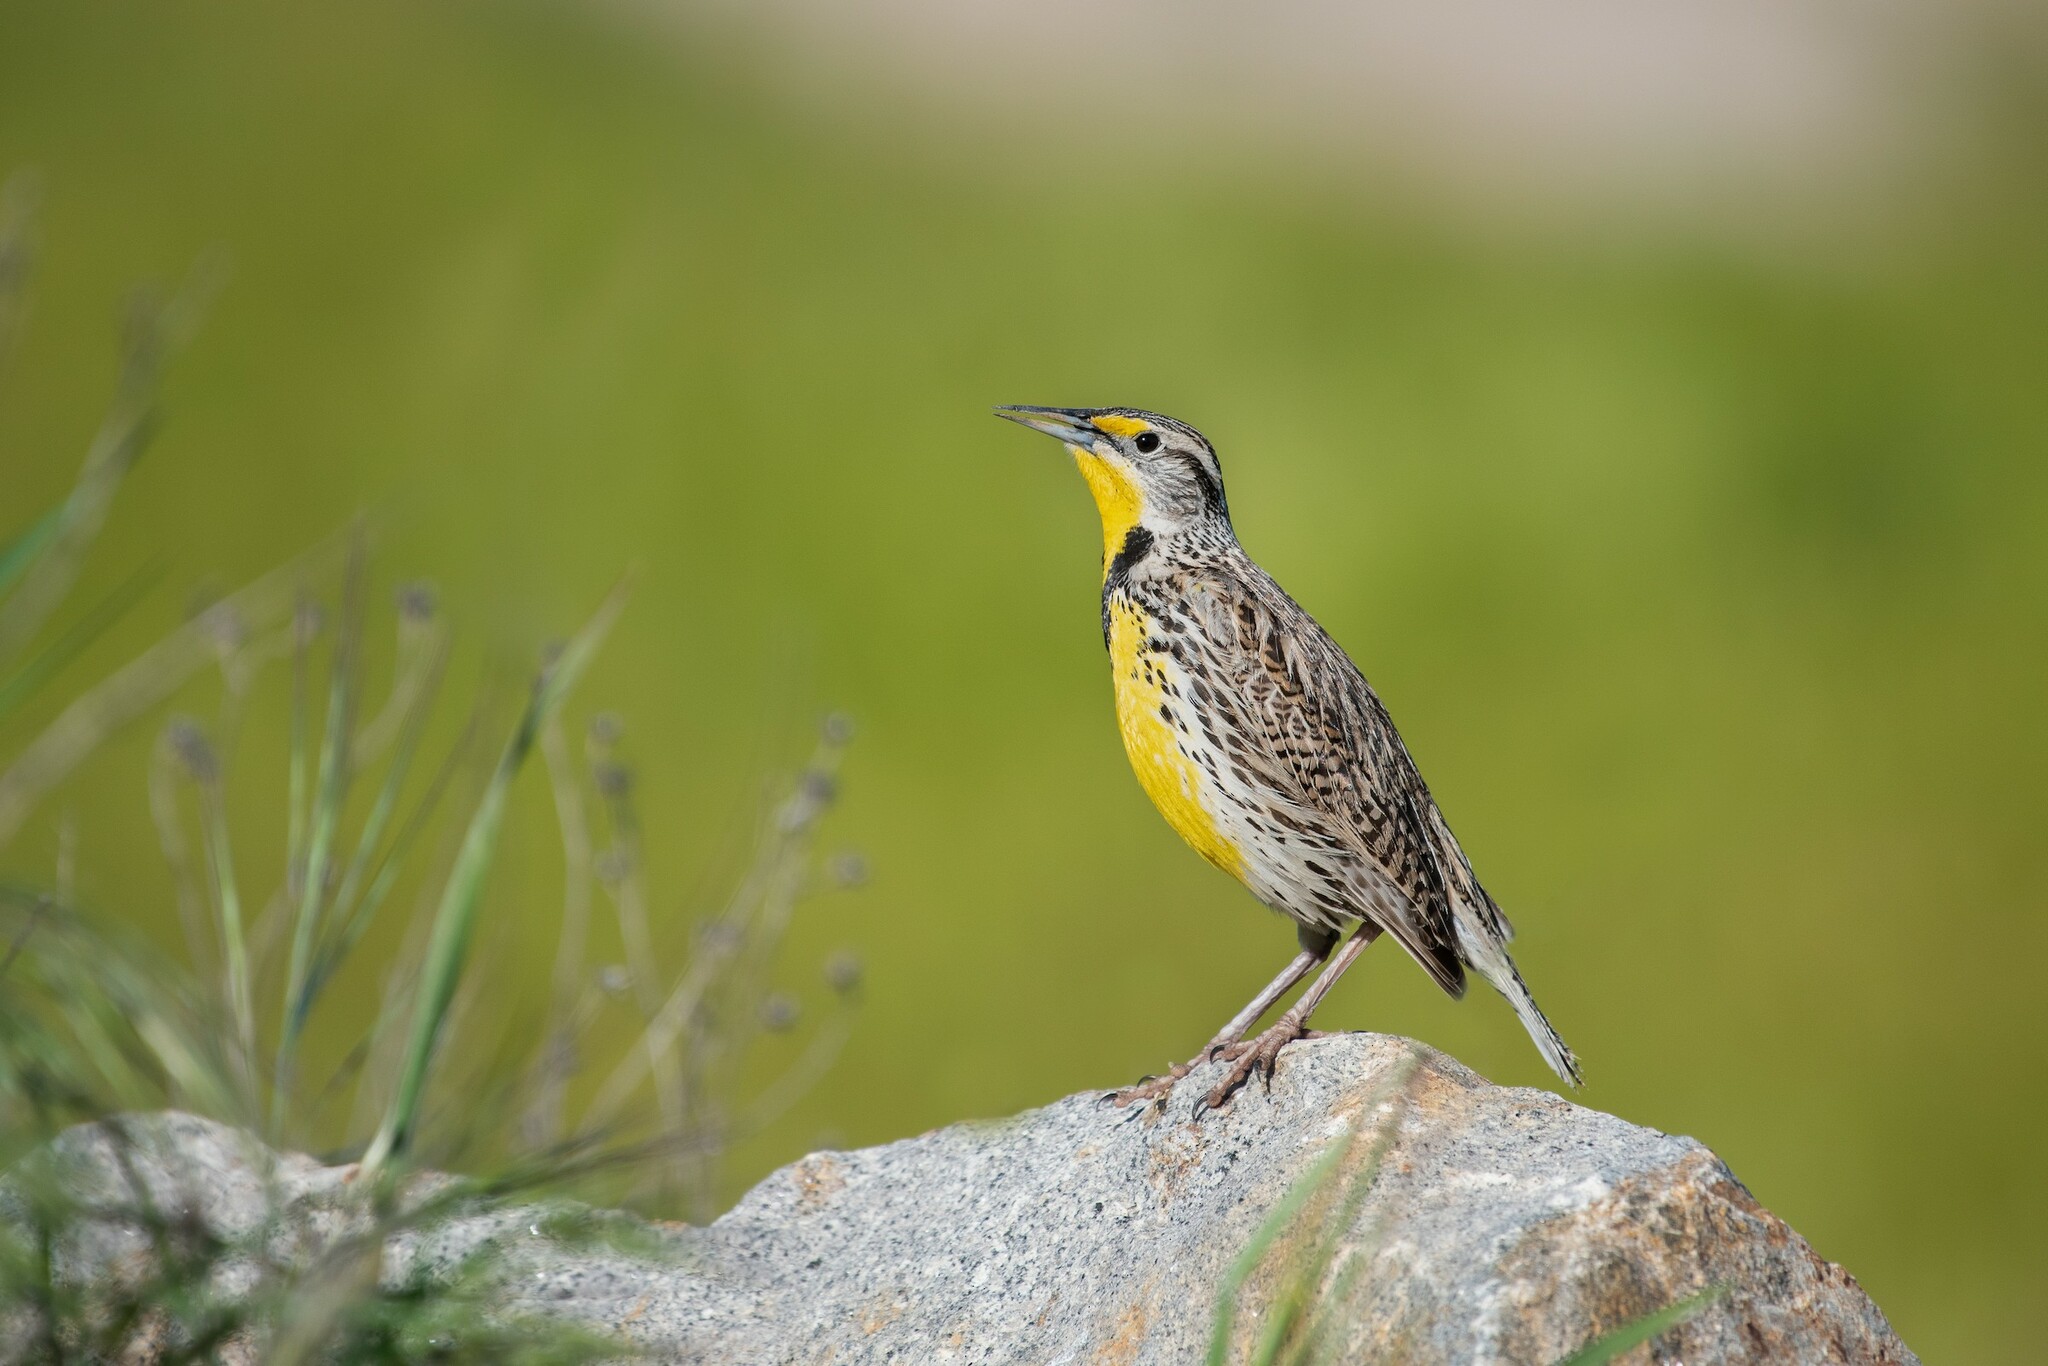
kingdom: Animalia
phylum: Chordata
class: Aves
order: Passeriformes
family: Icteridae
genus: Sturnella
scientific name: Sturnella neglecta
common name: Western meadowlark
